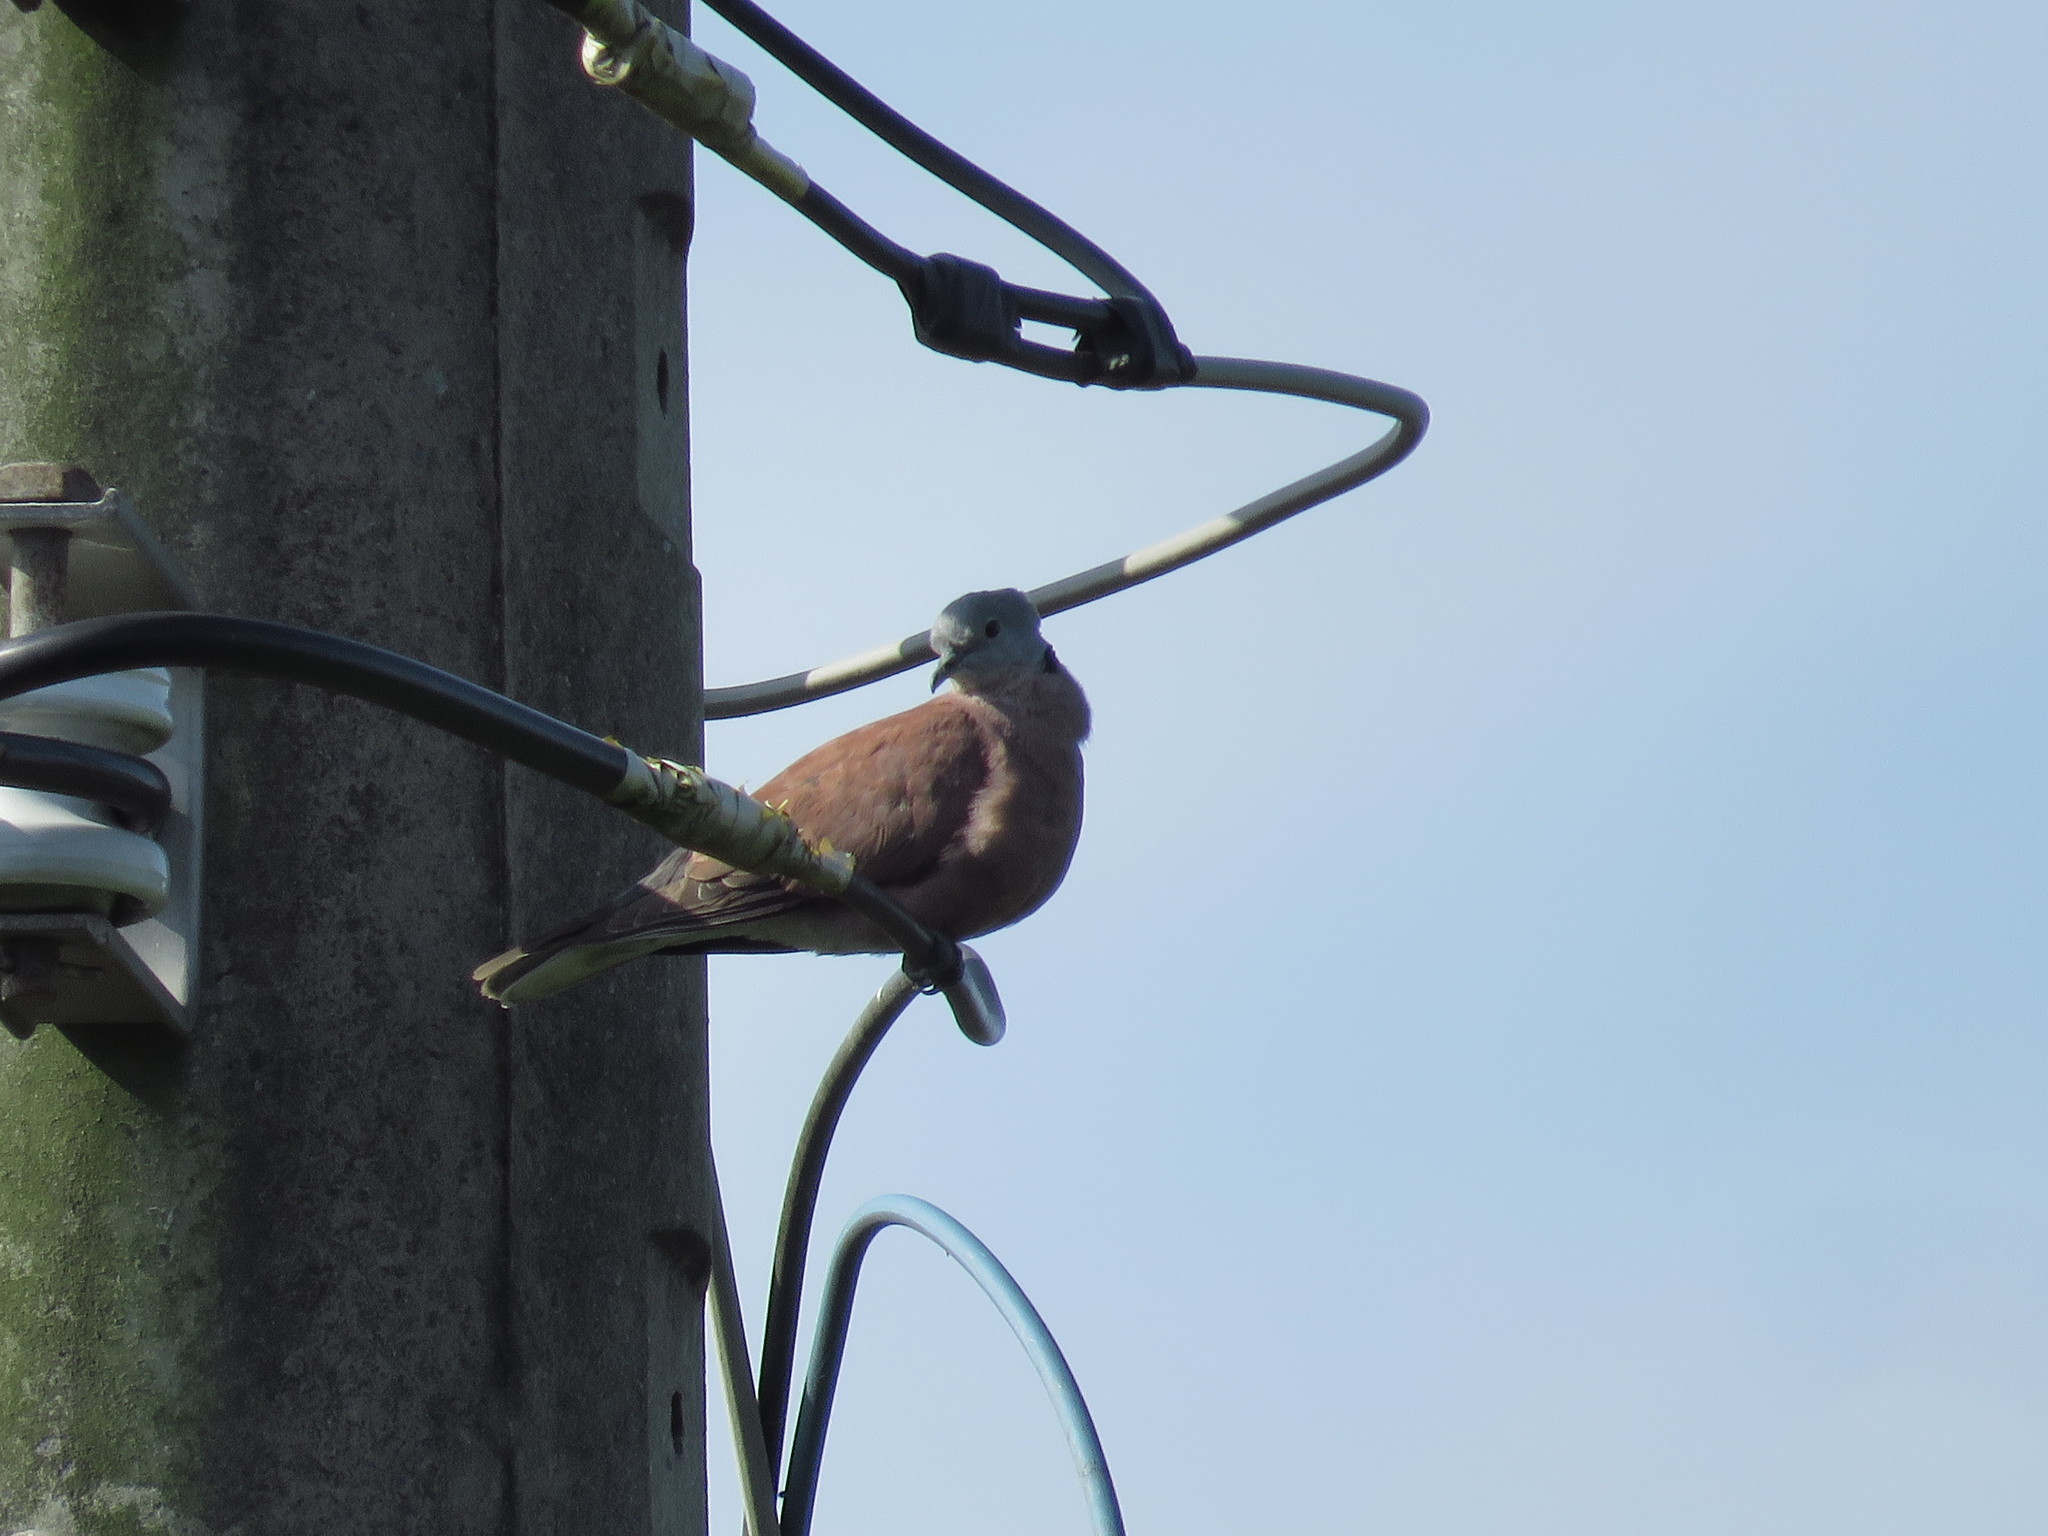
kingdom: Animalia
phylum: Chordata
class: Aves
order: Columbiformes
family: Columbidae
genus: Streptopelia
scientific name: Streptopelia tranquebarica
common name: Red turtle dove
